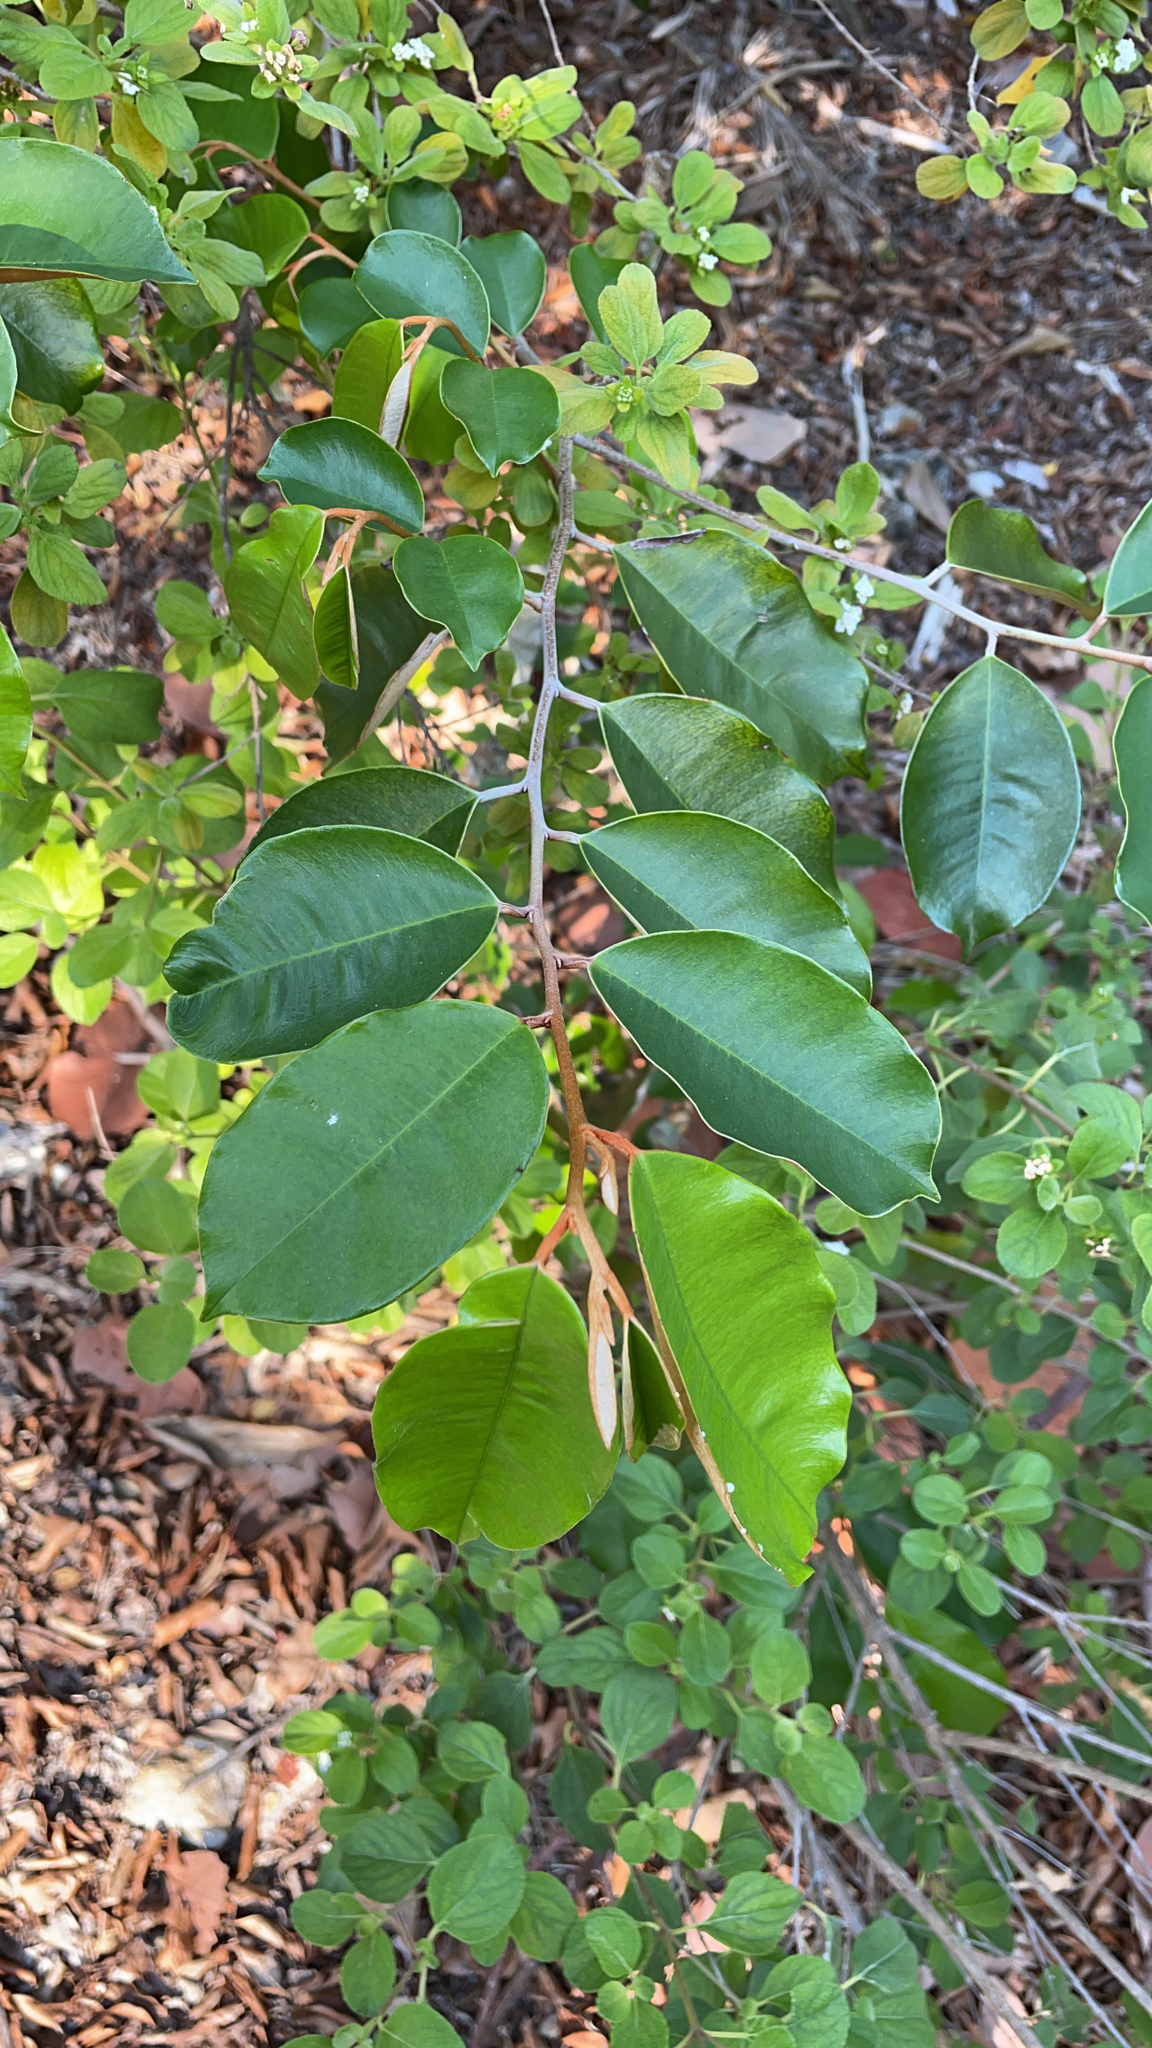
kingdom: Plantae
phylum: Tracheophyta
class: Magnoliopsida
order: Ericales
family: Sapotaceae
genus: Chrysophyllum
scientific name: Chrysophyllum oliviforme
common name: Satinleaf
